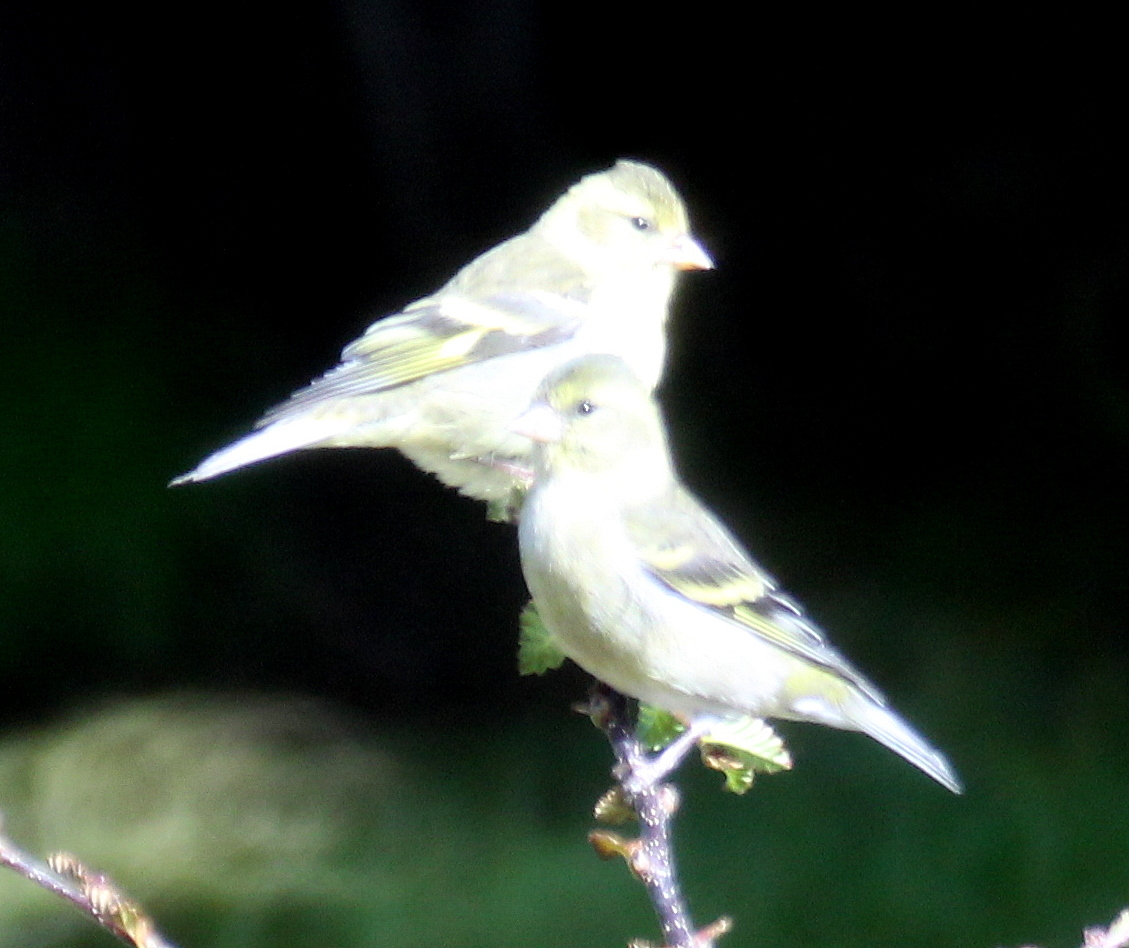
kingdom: Animalia
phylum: Chordata
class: Aves
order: Passeriformes
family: Fringillidae
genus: Spinus
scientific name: Spinus barbatus
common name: Black-chinned siskin
